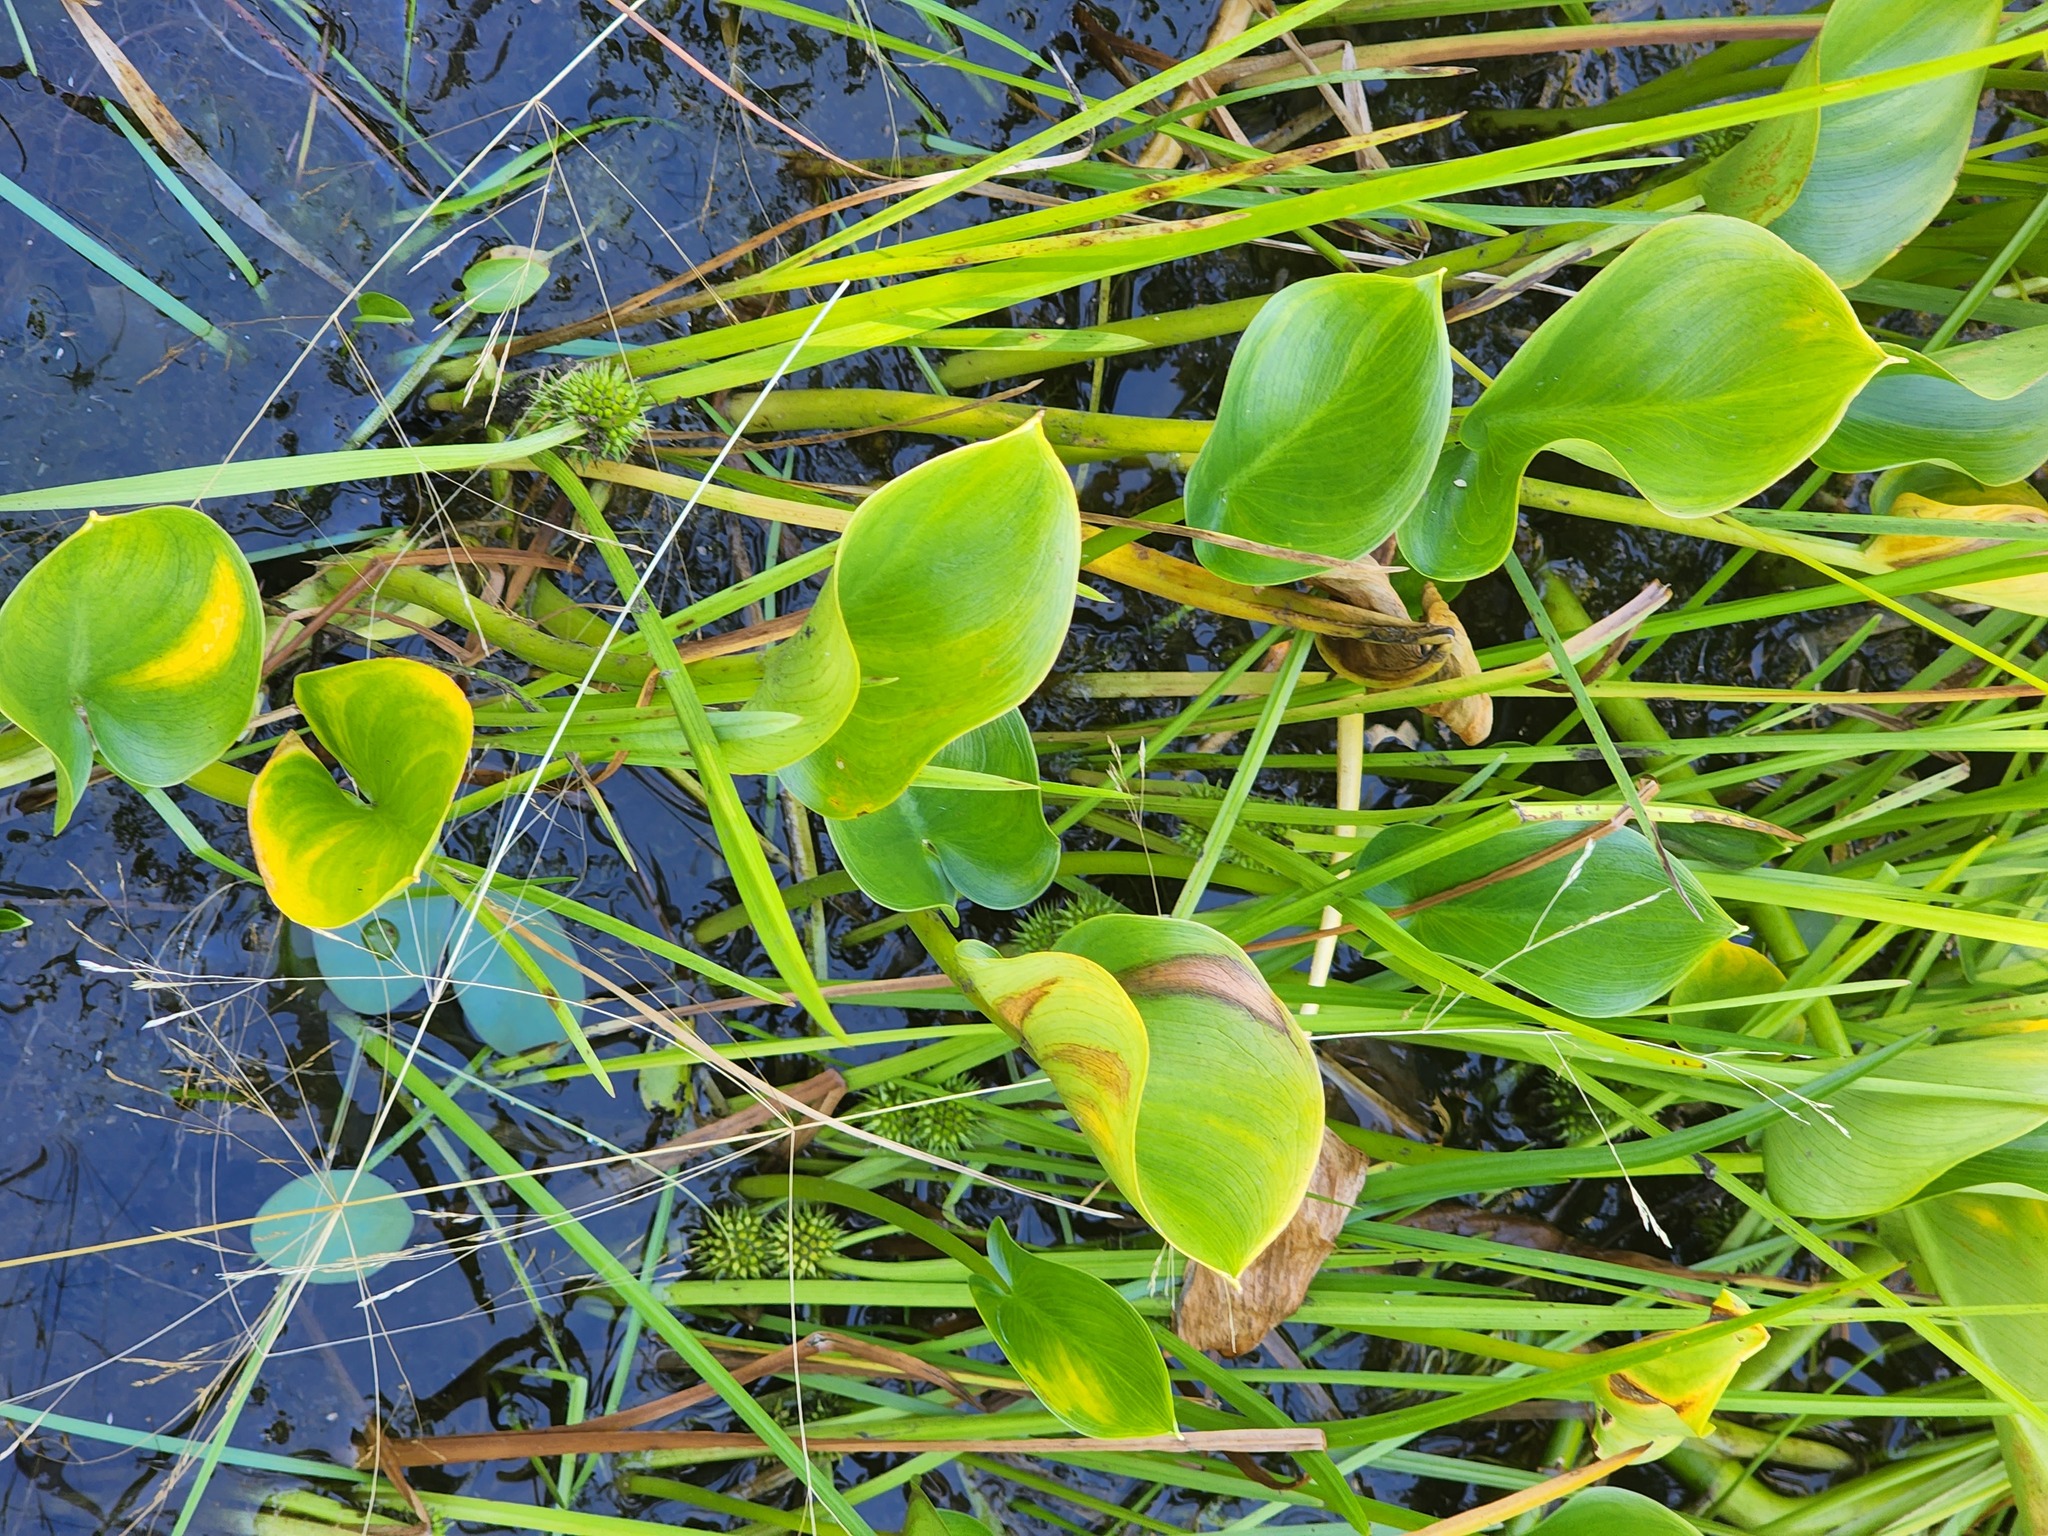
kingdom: Plantae
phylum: Tracheophyta
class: Liliopsida
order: Alismatales
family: Araceae
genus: Calla
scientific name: Calla palustris
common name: Bog arum
